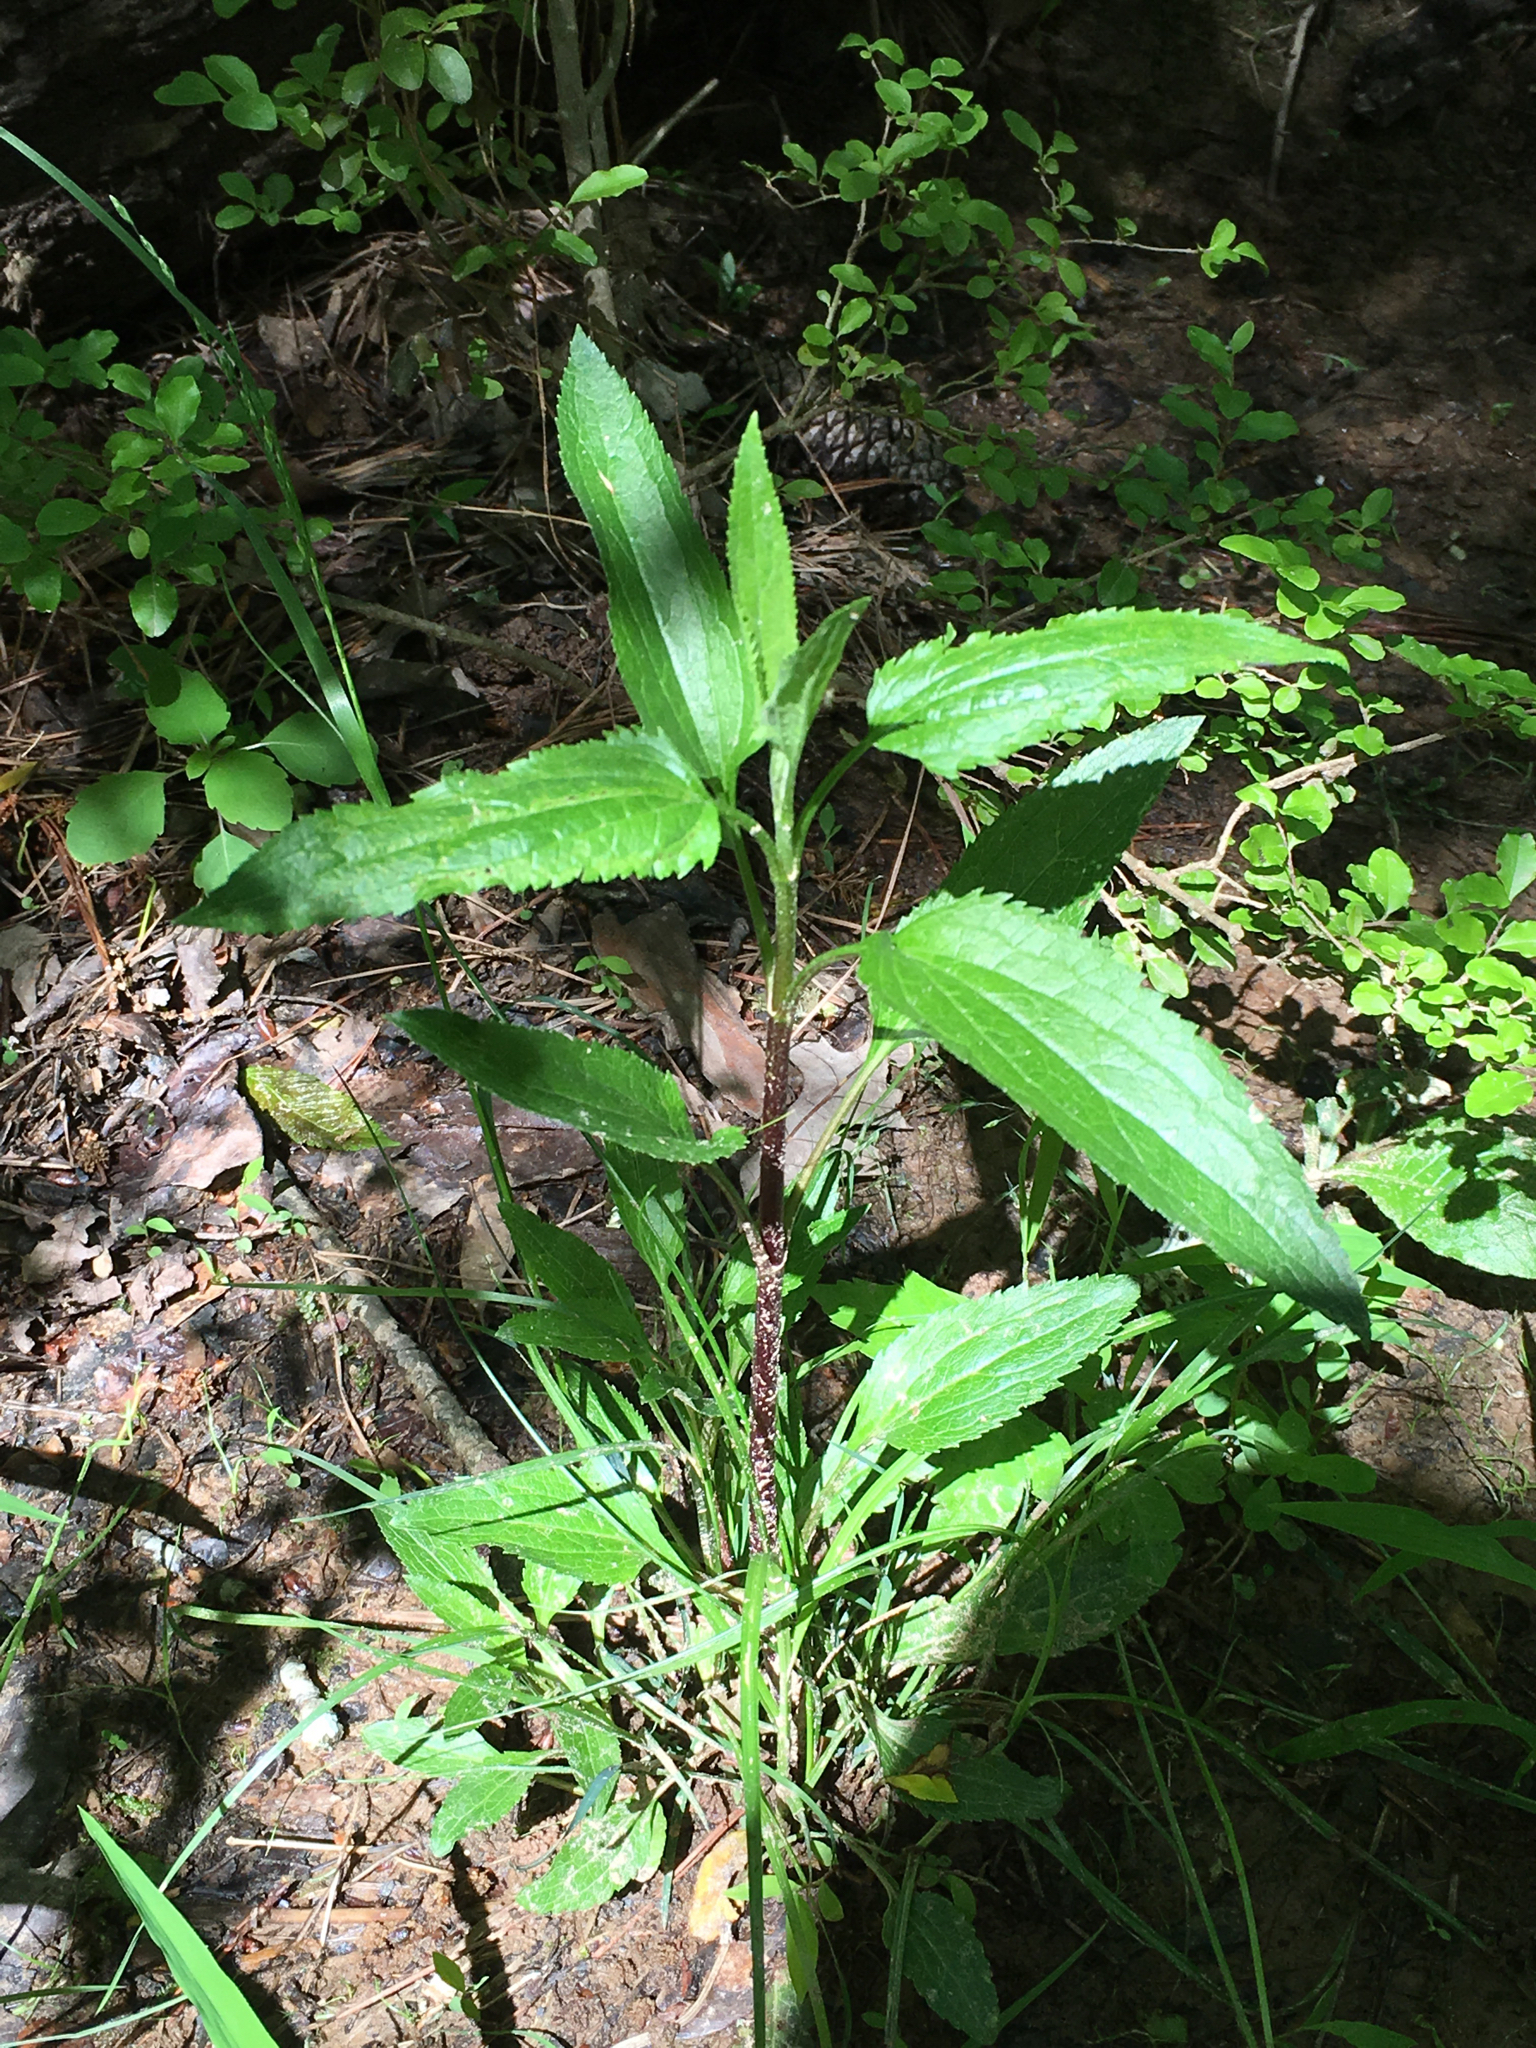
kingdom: Plantae
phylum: Tracheophyta
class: Magnoliopsida
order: Asterales
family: Asteraceae
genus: Eupatorium
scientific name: Eupatorium serotinum
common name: Late boneset
